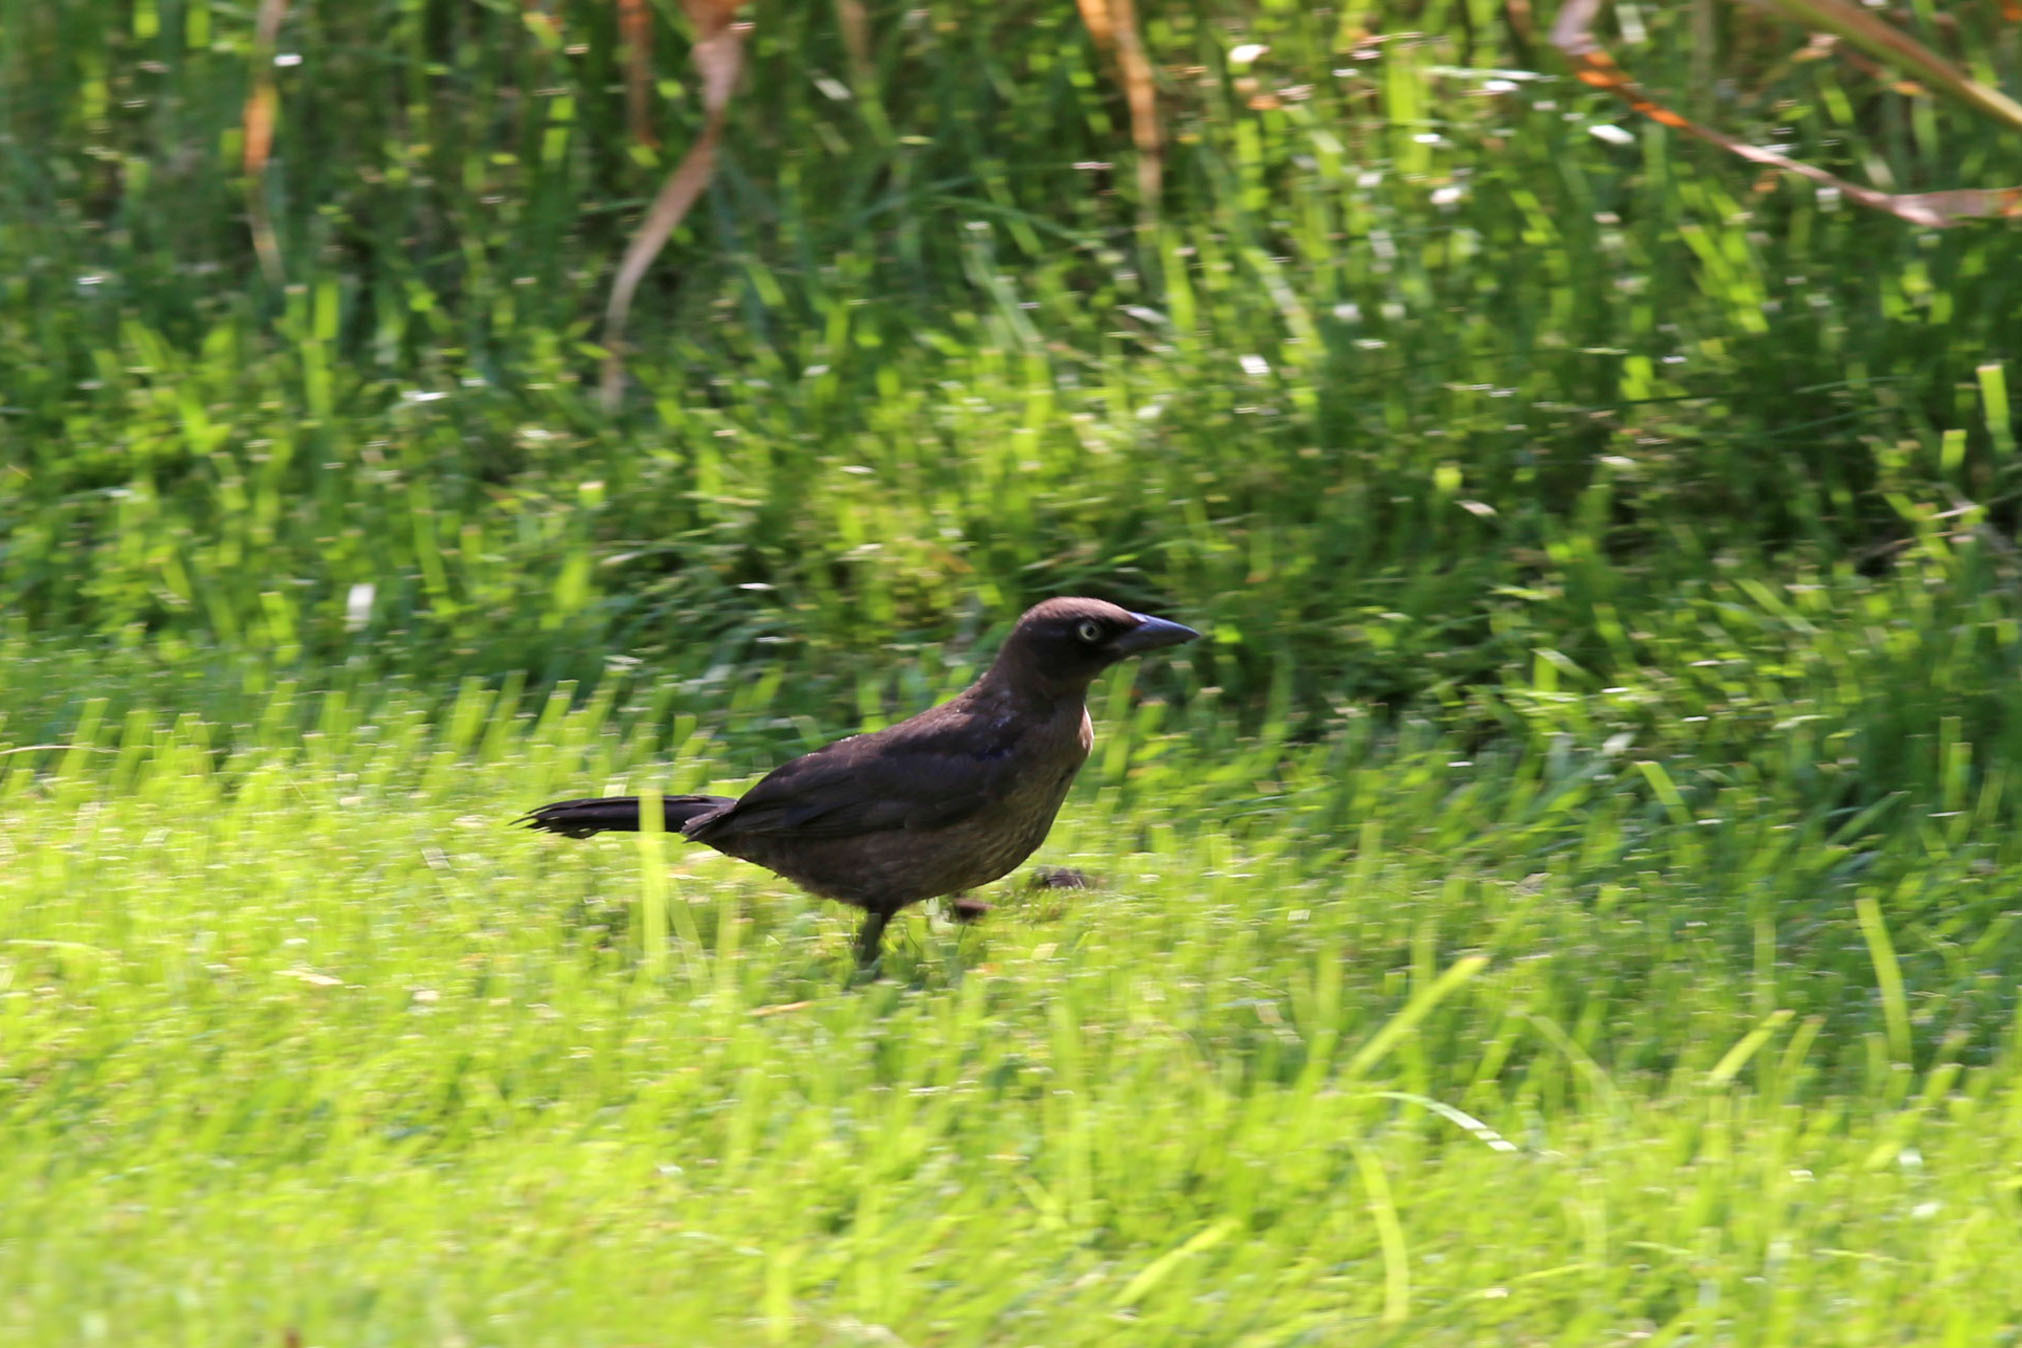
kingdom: Animalia
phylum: Chordata
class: Aves
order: Passeriformes
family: Icteridae
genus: Quiscalus
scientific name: Quiscalus quiscula
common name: Common grackle
